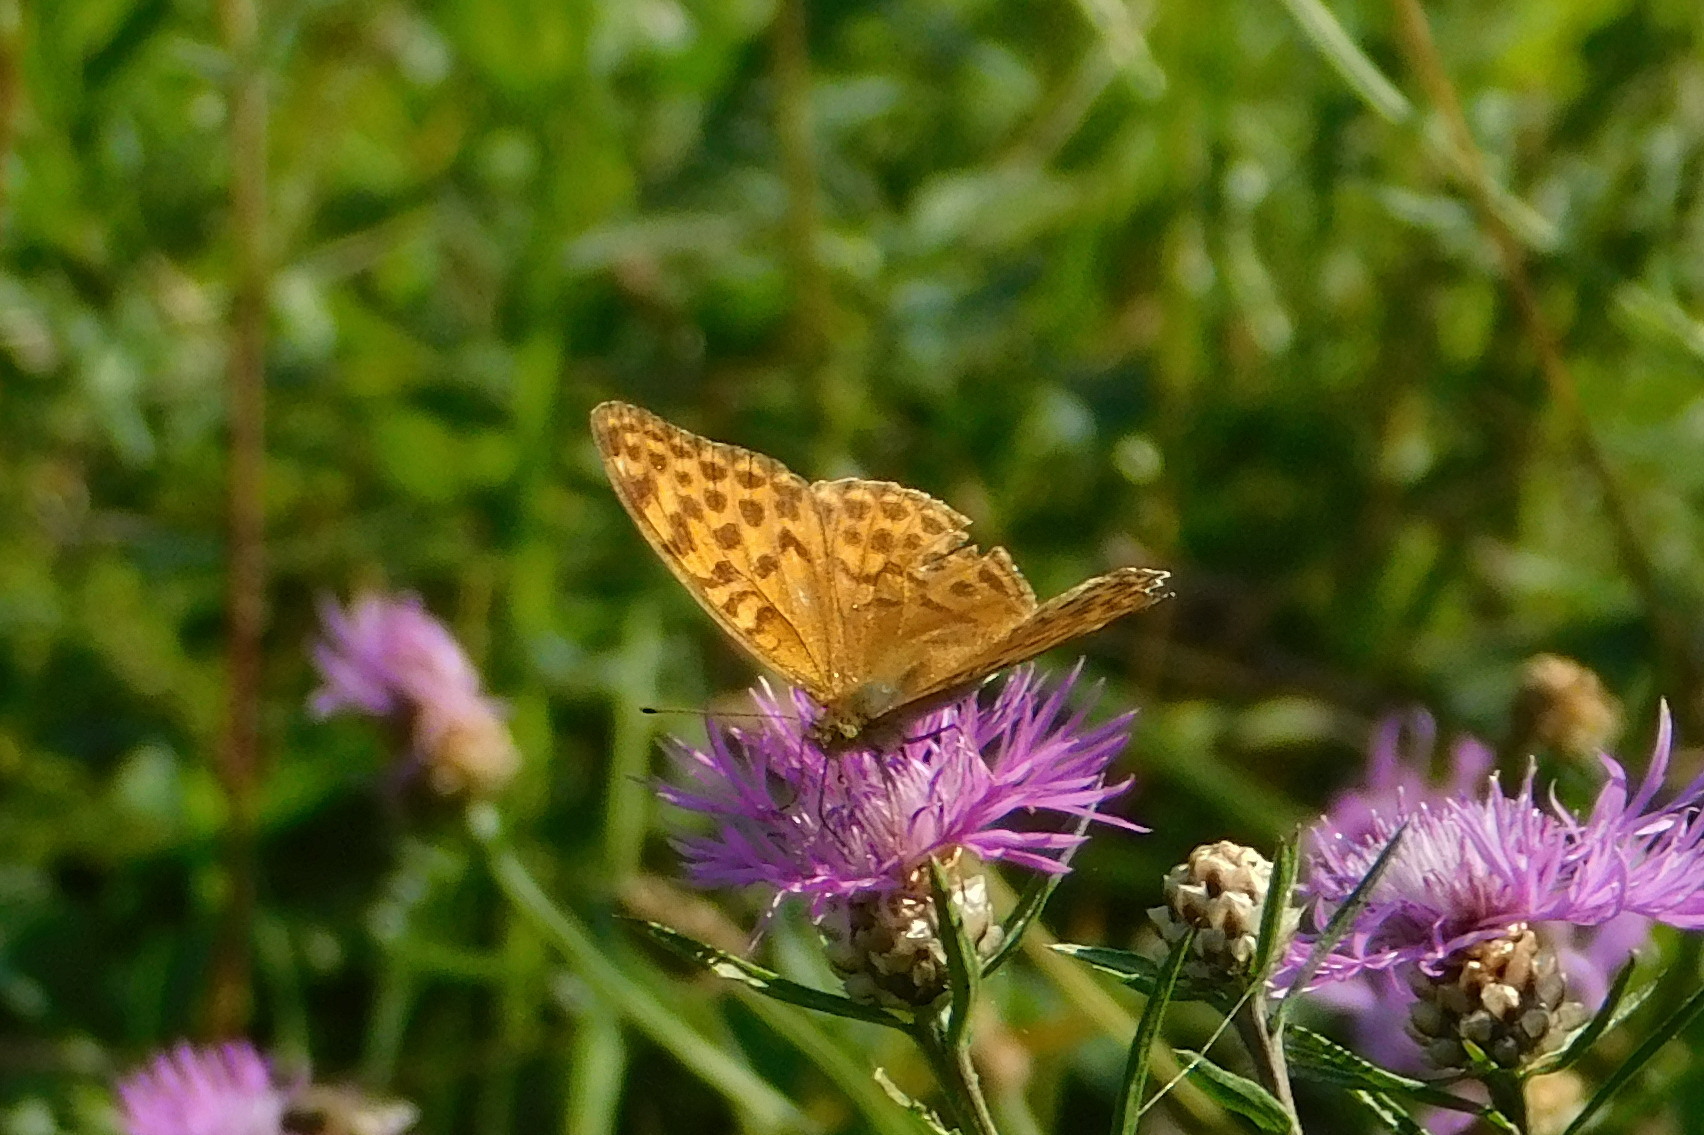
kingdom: Animalia
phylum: Arthropoda
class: Insecta
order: Lepidoptera
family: Nymphalidae
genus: Argynnis
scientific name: Argynnis paphia
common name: Silver-washed fritillary
